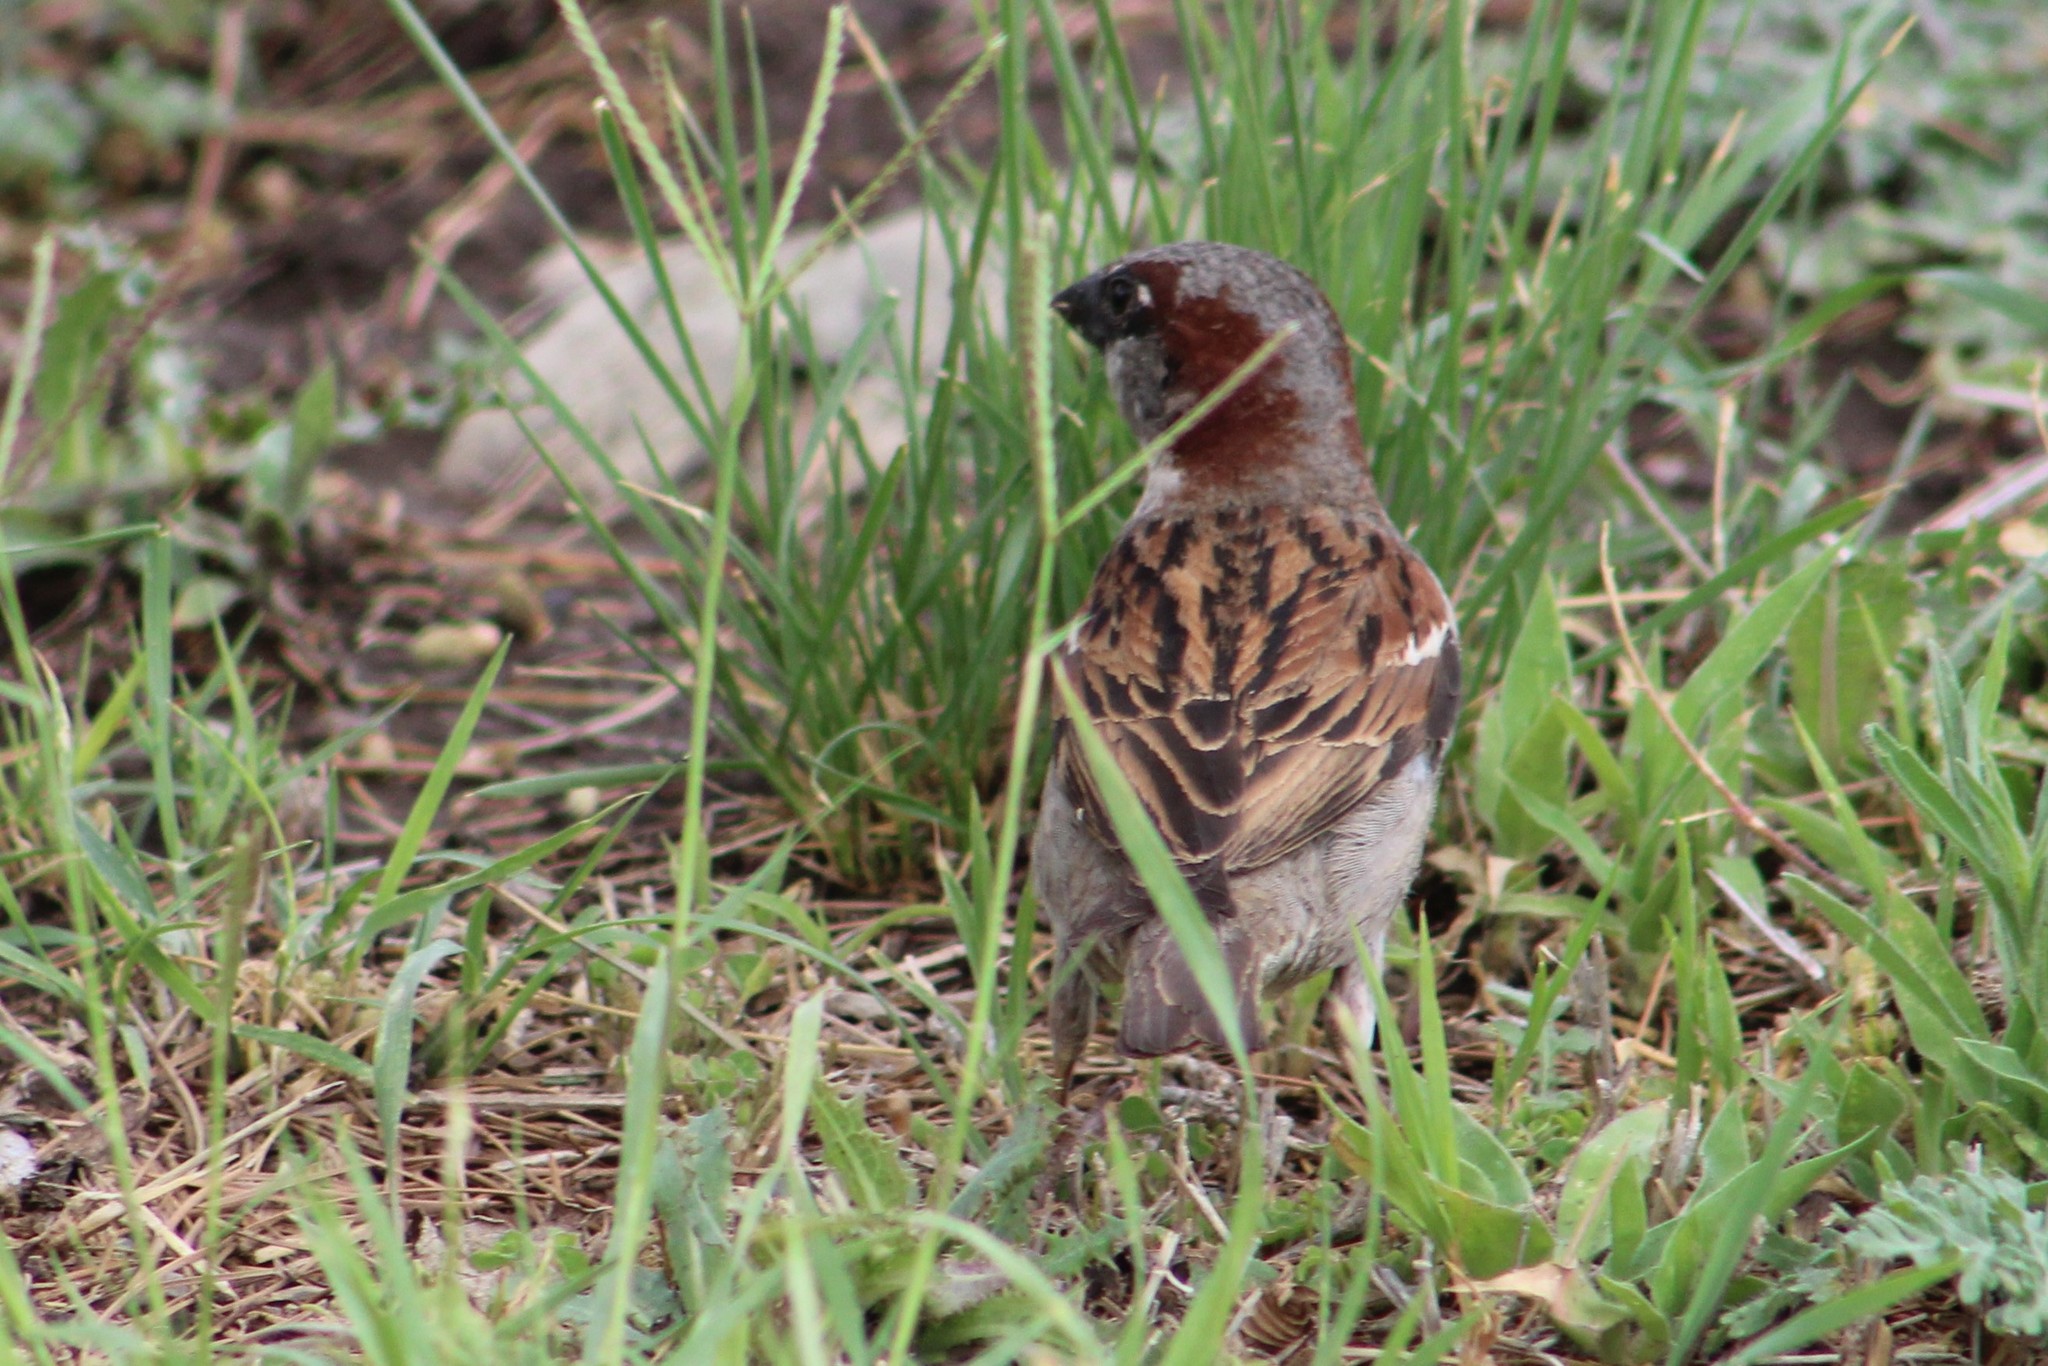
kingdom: Animalia
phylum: Chordata
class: Aves
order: Passeriformes
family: Passeridae
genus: Passer
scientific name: Passer domesticus
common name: House sparrow
